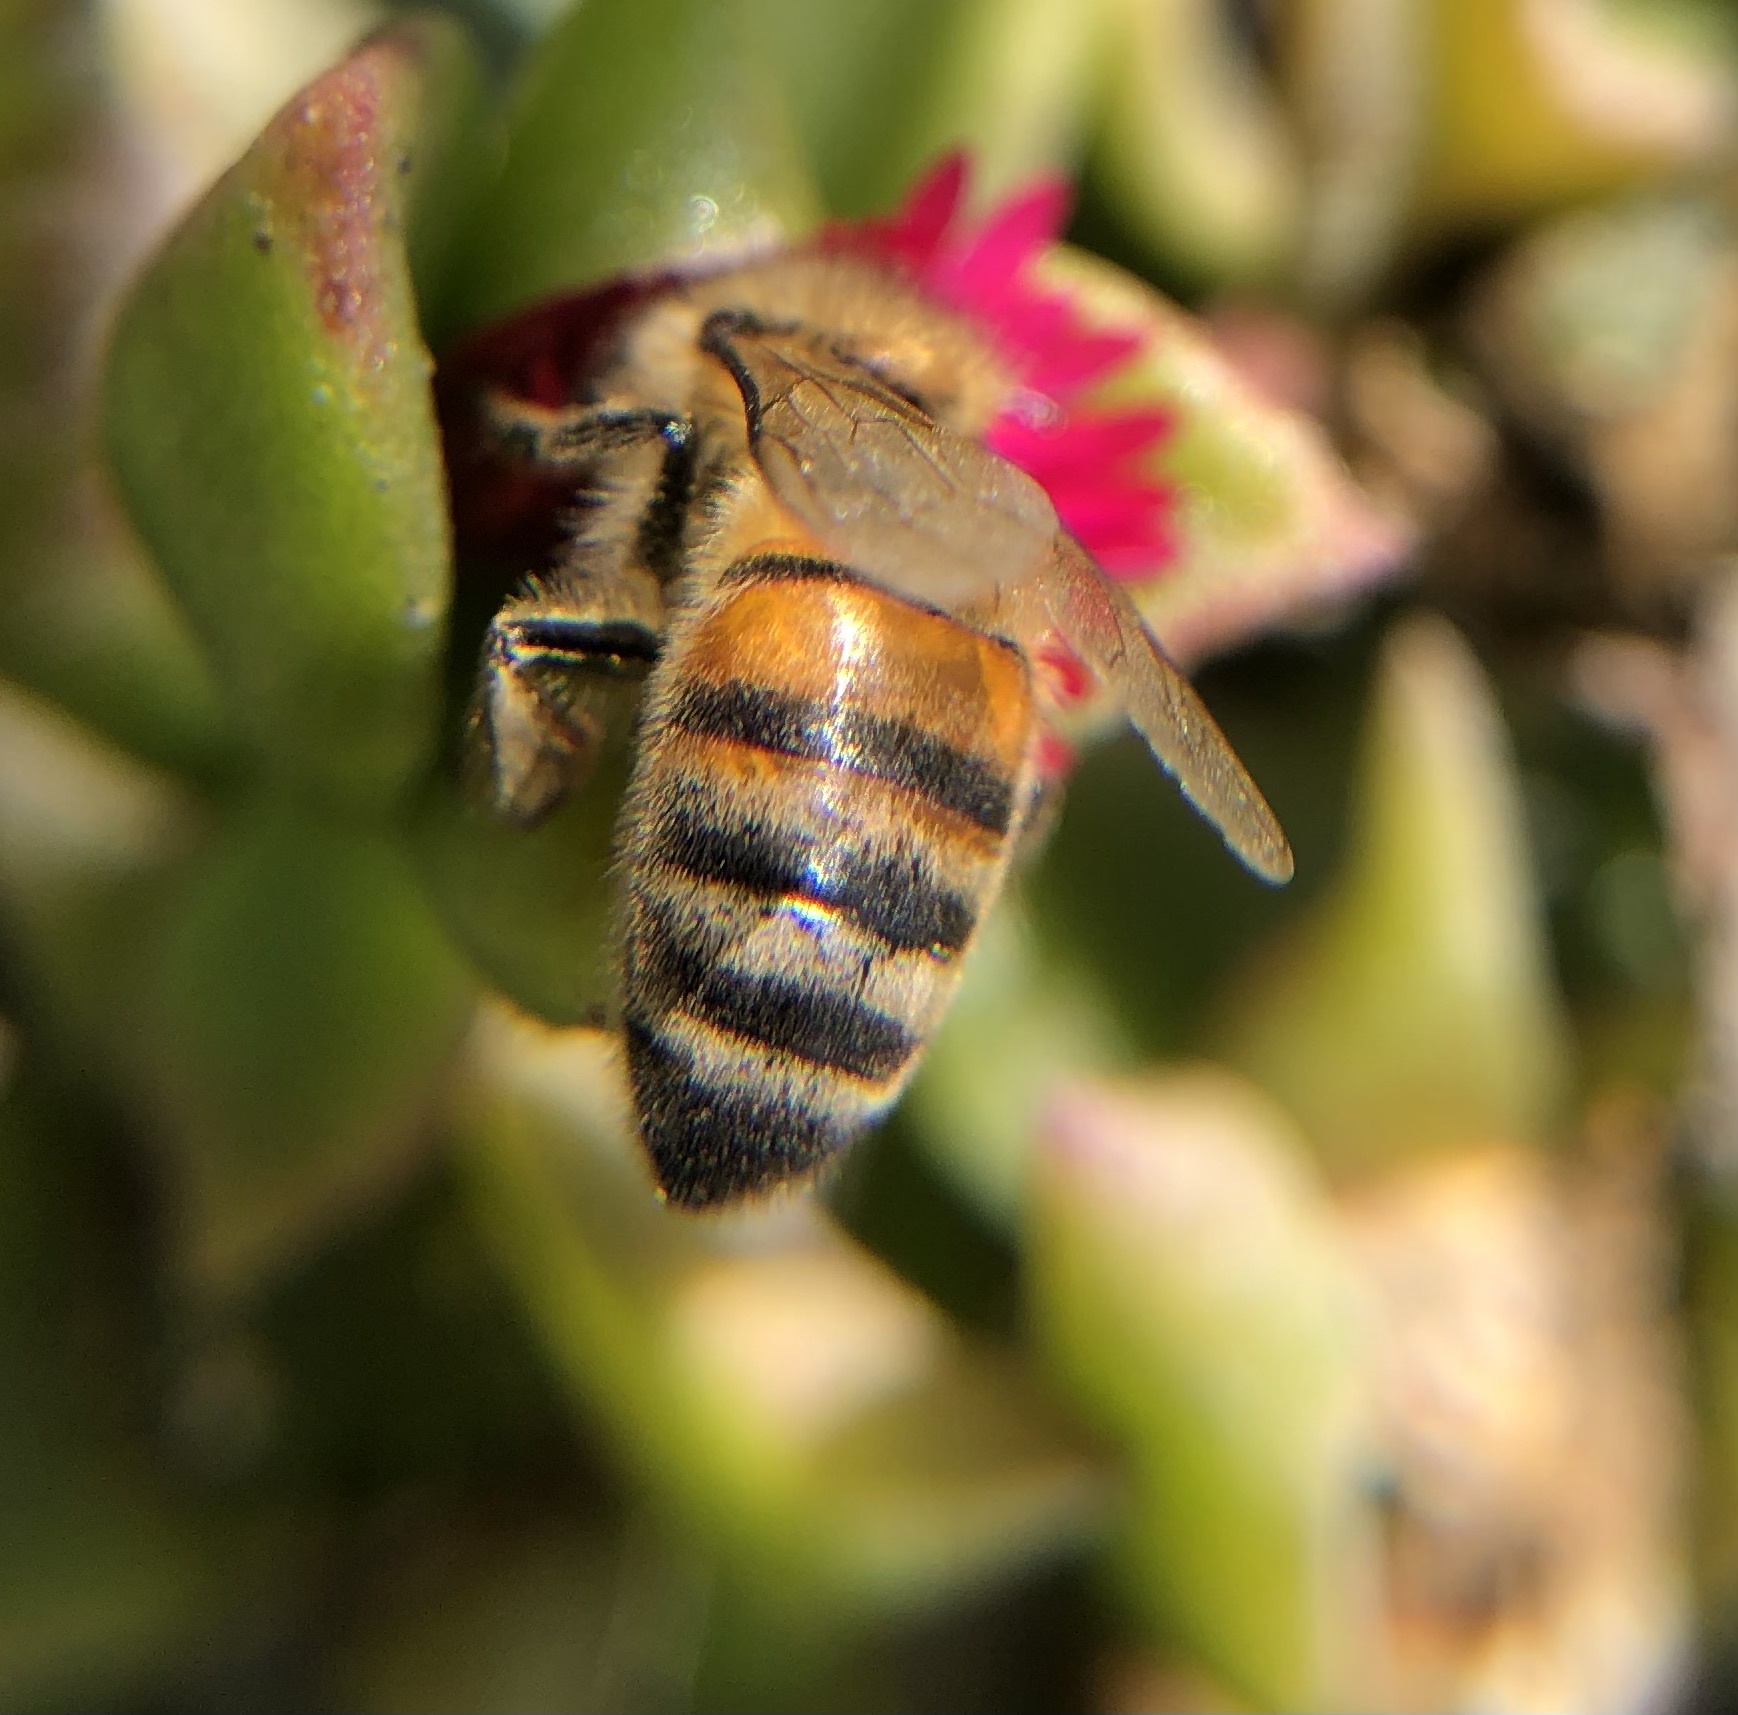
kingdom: Animalia
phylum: Arthropoda
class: Insecta
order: Hymenoptera
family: Apidae
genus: Apis
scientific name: Apis mellifera
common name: Honey bee
